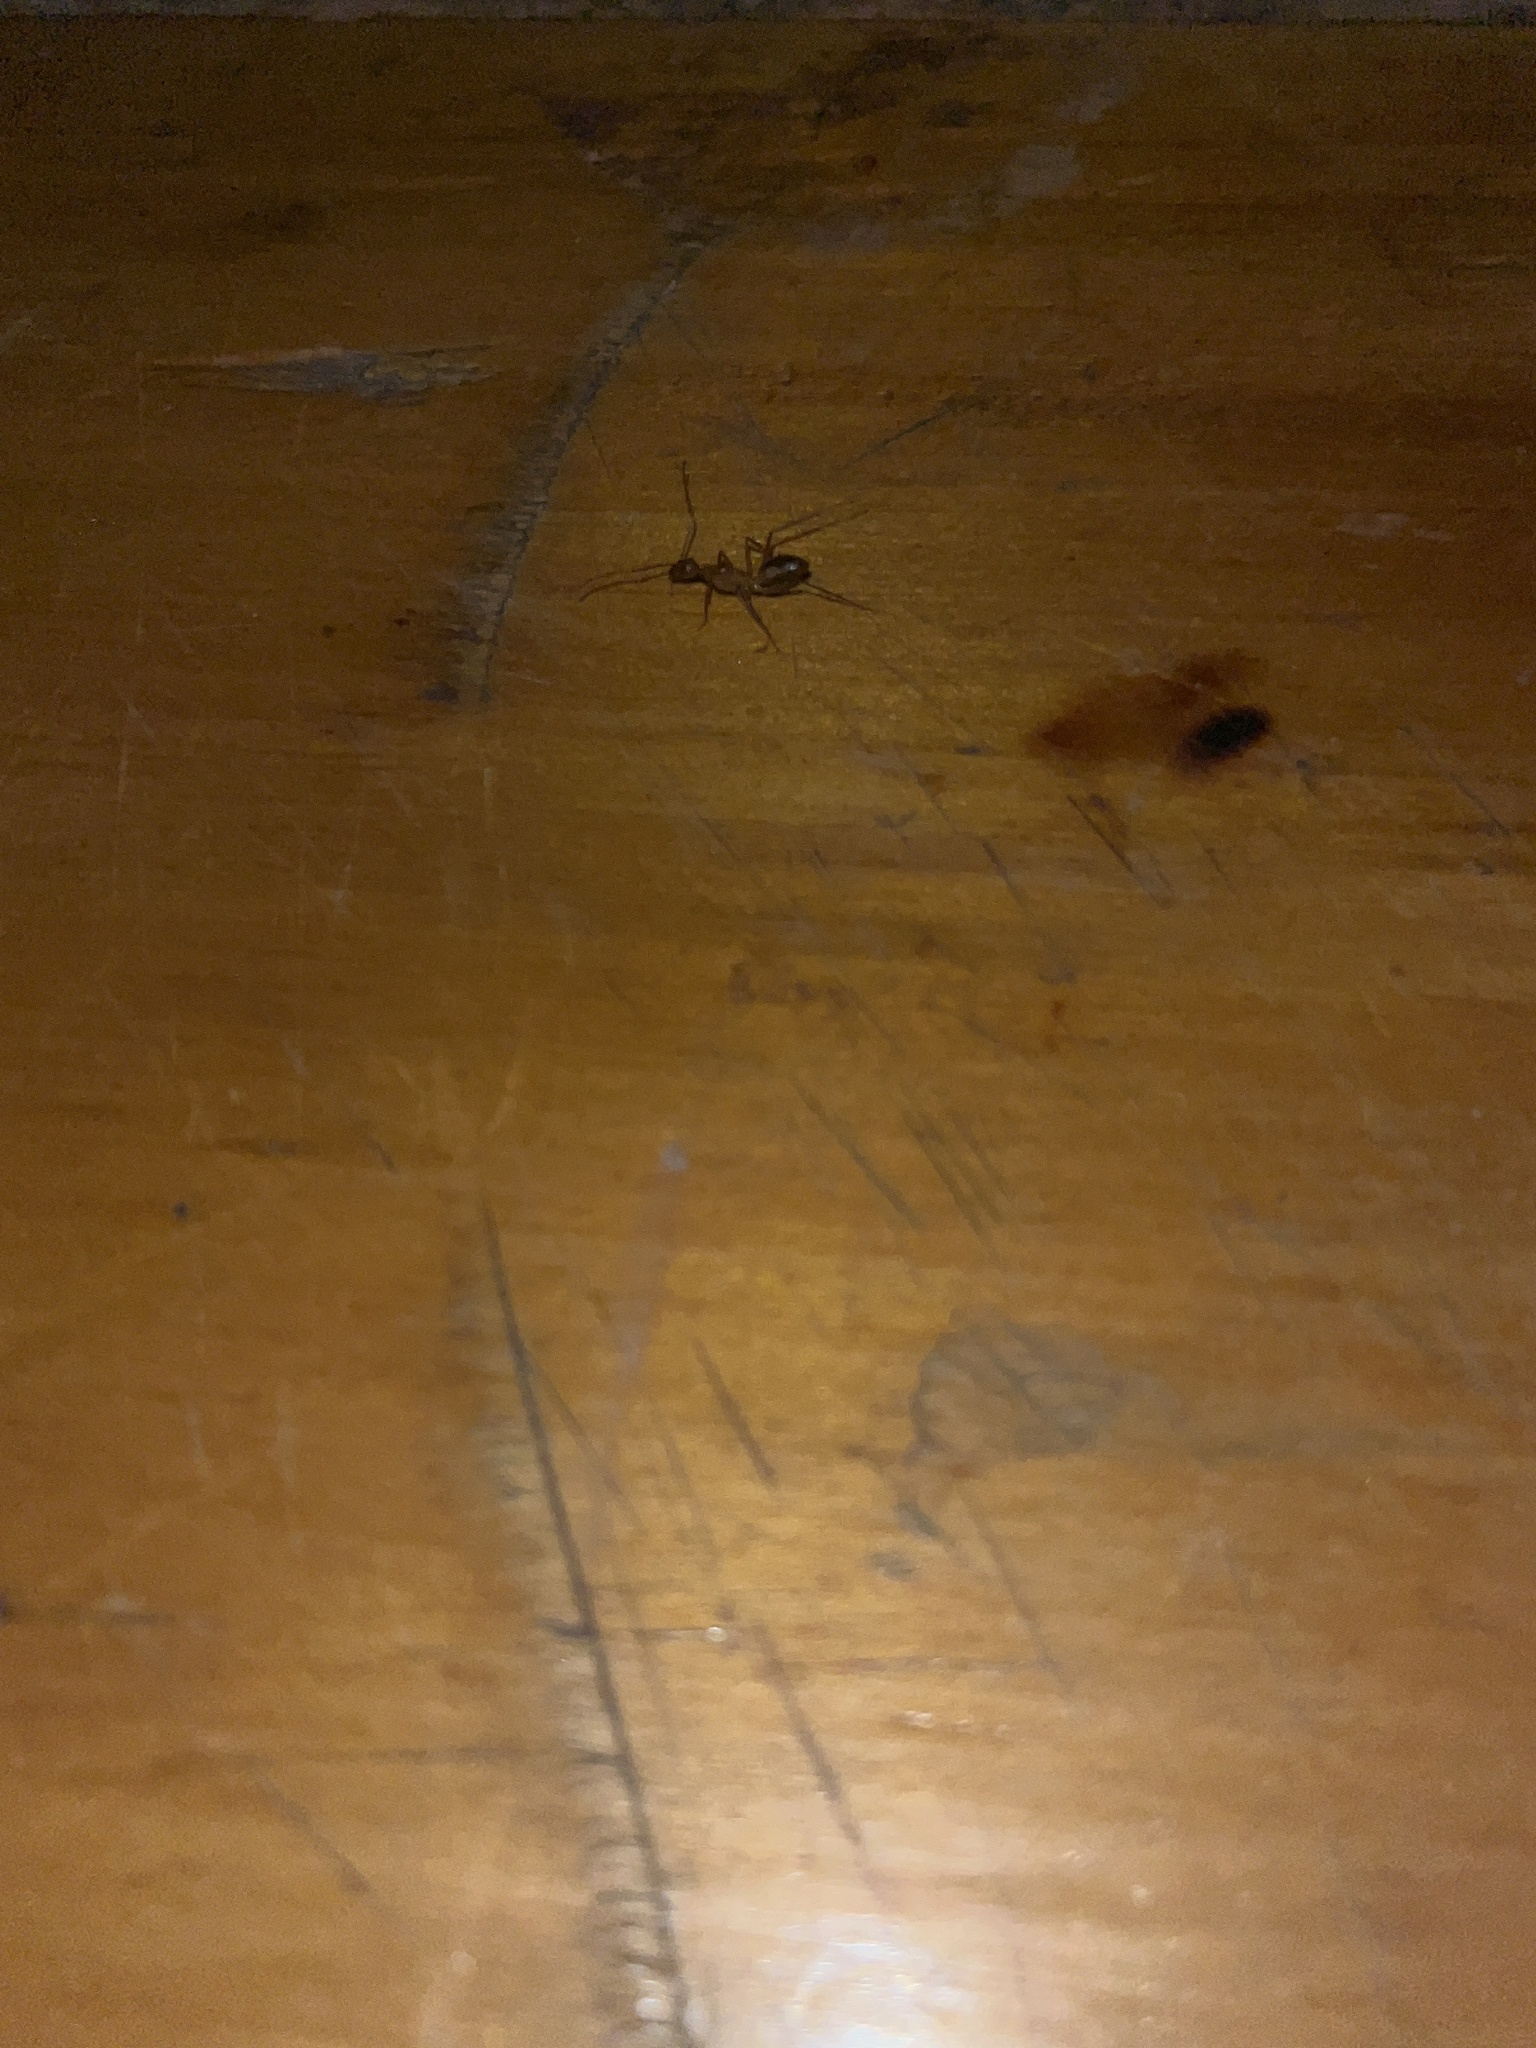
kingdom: Animalia
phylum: Arthropoda
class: Insecta
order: Hymenoptera
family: Formicidae
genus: Camponotus
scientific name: Camponotus aegyptiacus
